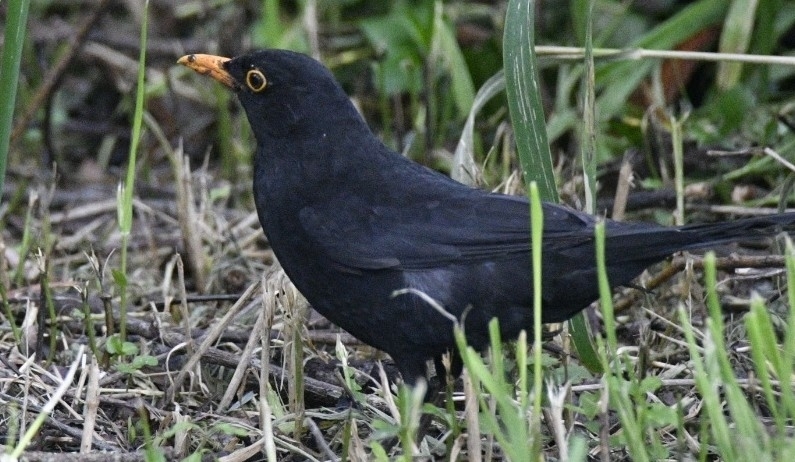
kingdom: Animalia
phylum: Chordata
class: Aves
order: Passeriformes
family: Turdidae
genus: Turdus
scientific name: Turdus merula
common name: Common blackbird
